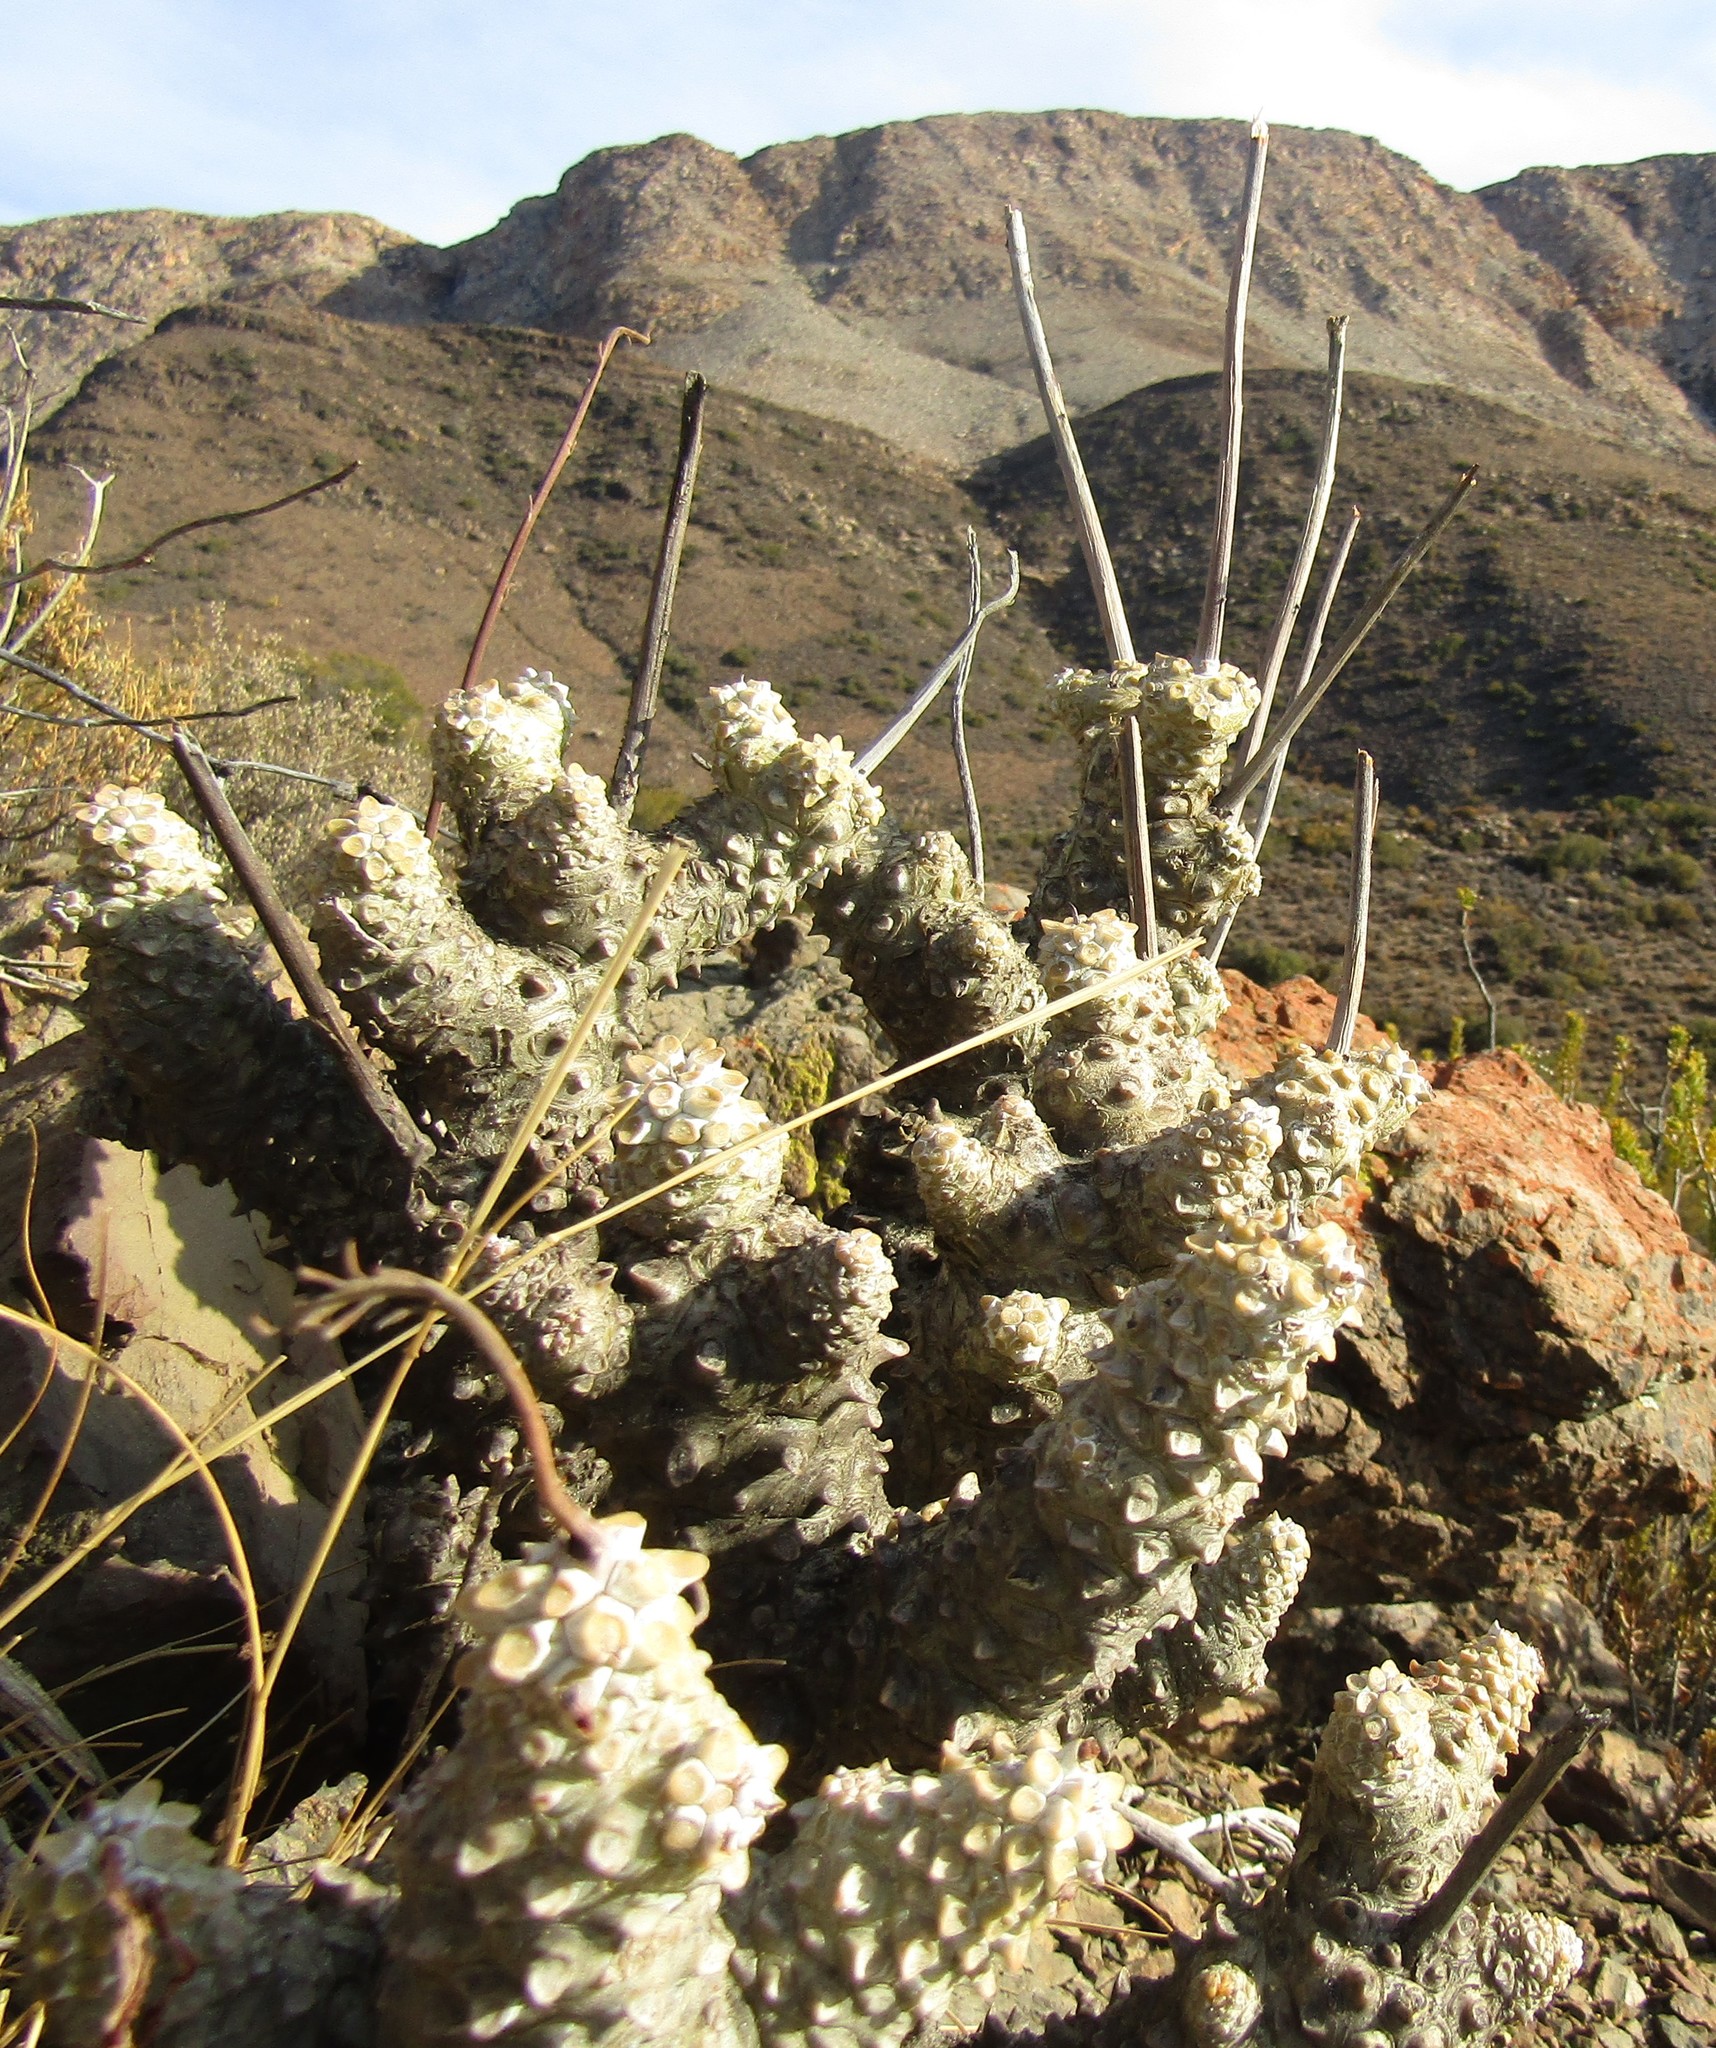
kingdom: Plantae
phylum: Tracheophyta
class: Magnoliopsida
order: Saxifragales
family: Crassulaceae
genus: Tylecodon
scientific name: Tylecodon wallichii
